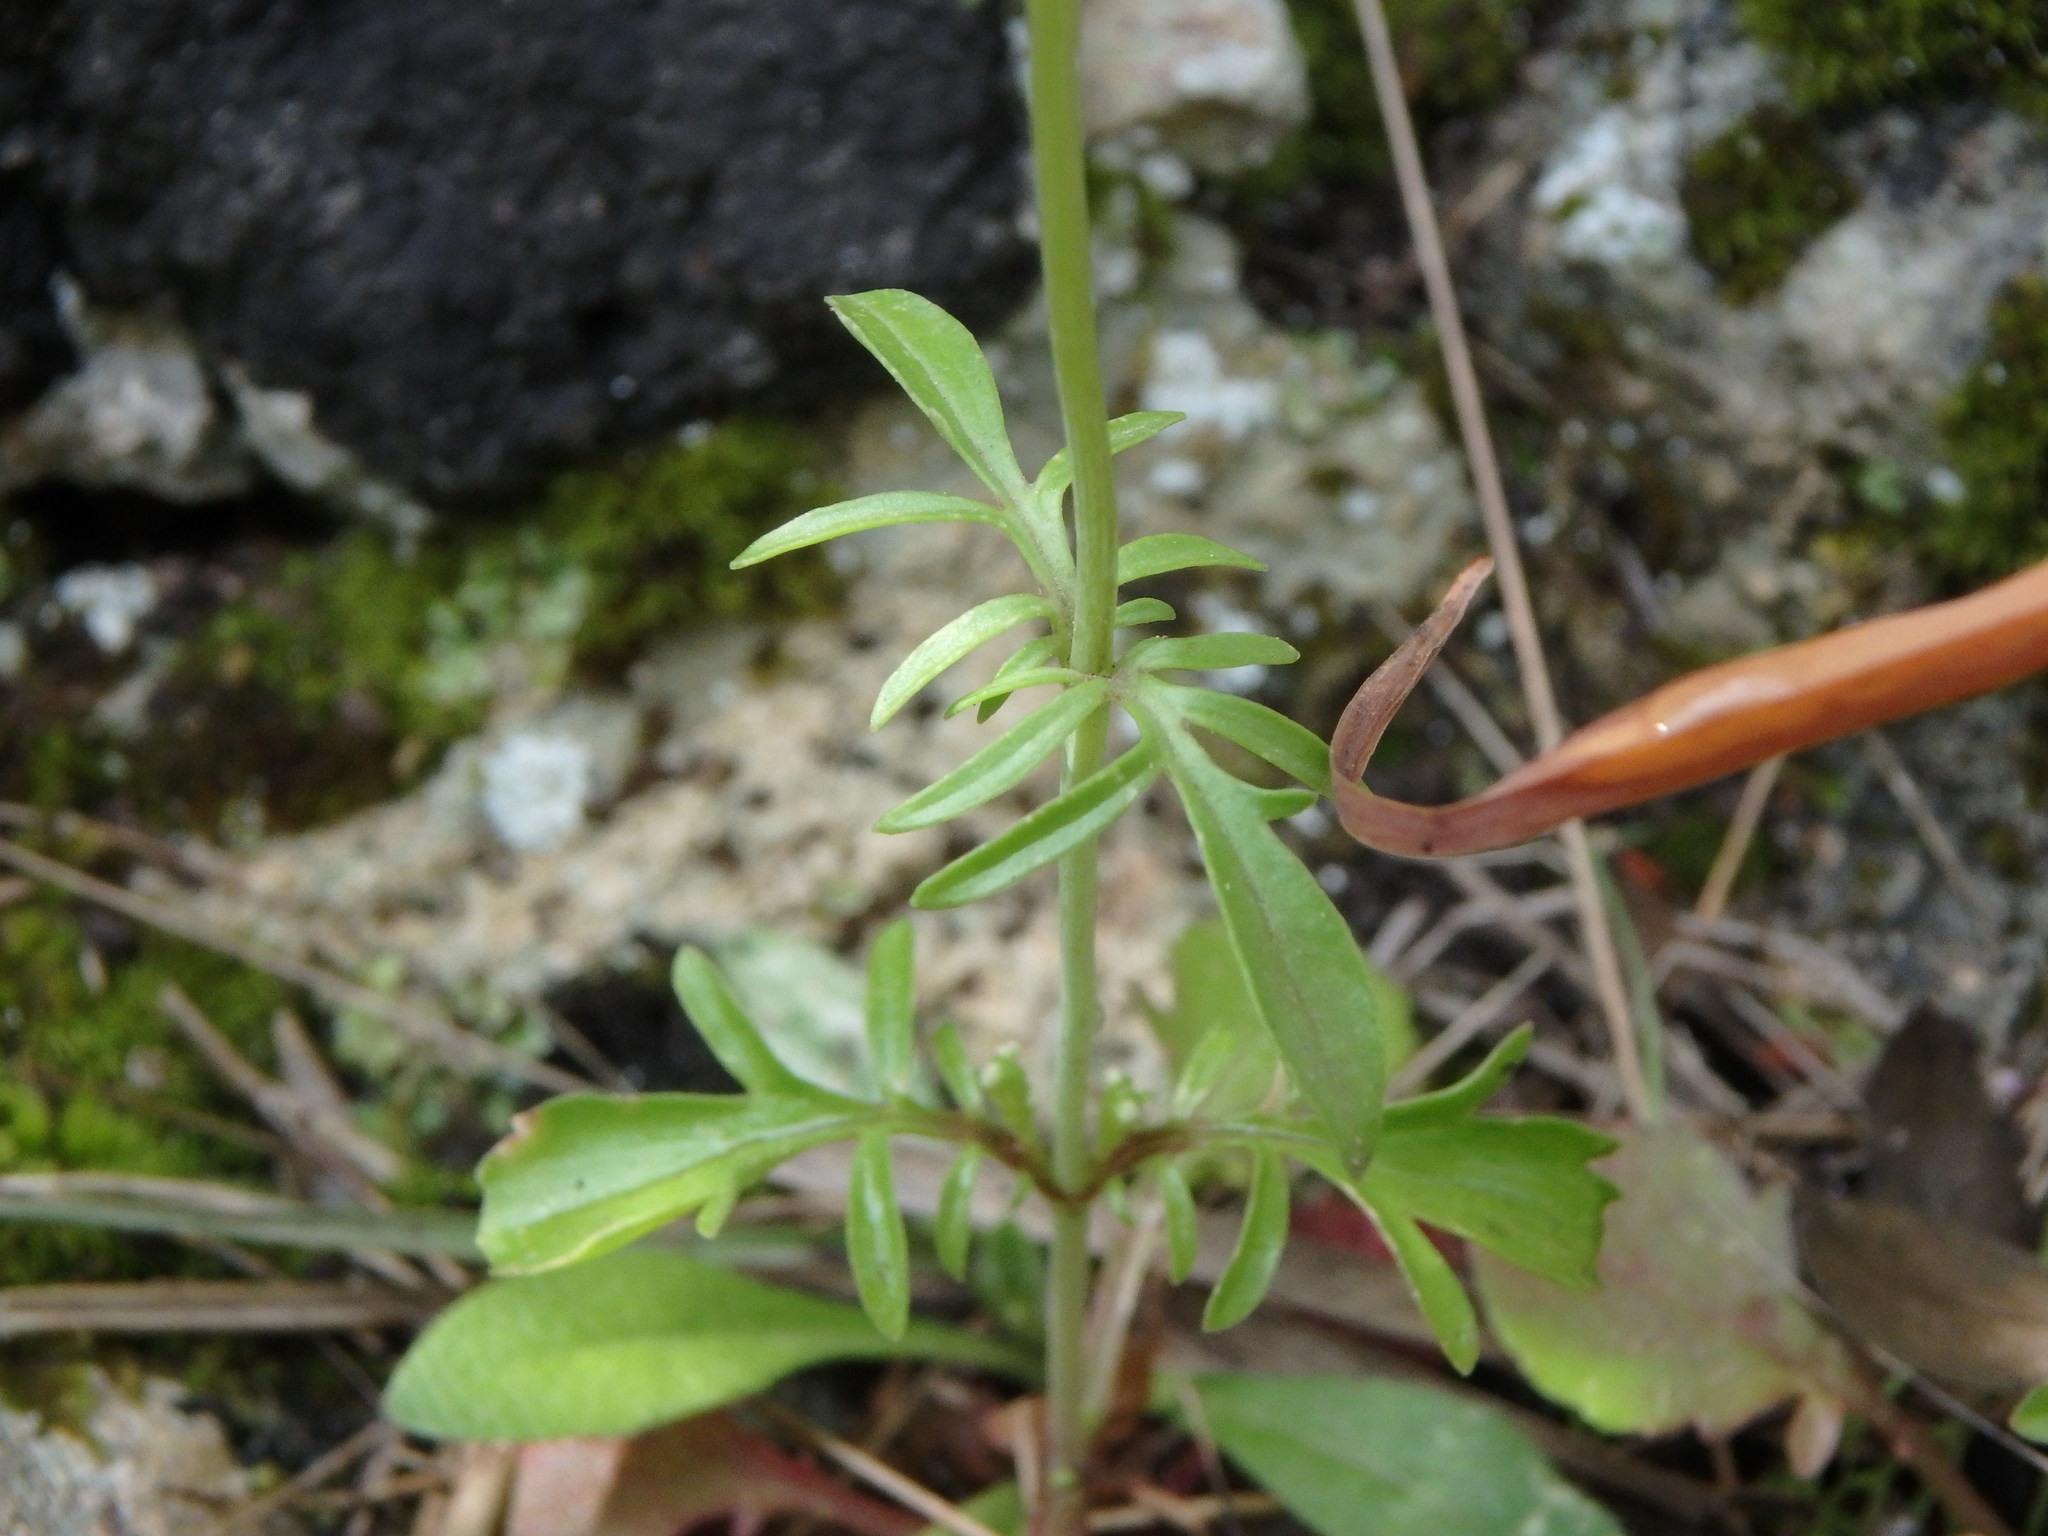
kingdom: Plantae
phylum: Tracheophyta
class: Magnoliopsida
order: Dipsacales
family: Caprifoliaceae
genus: Centranthus
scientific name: Centranthus calcitrapae
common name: Annual valerian
